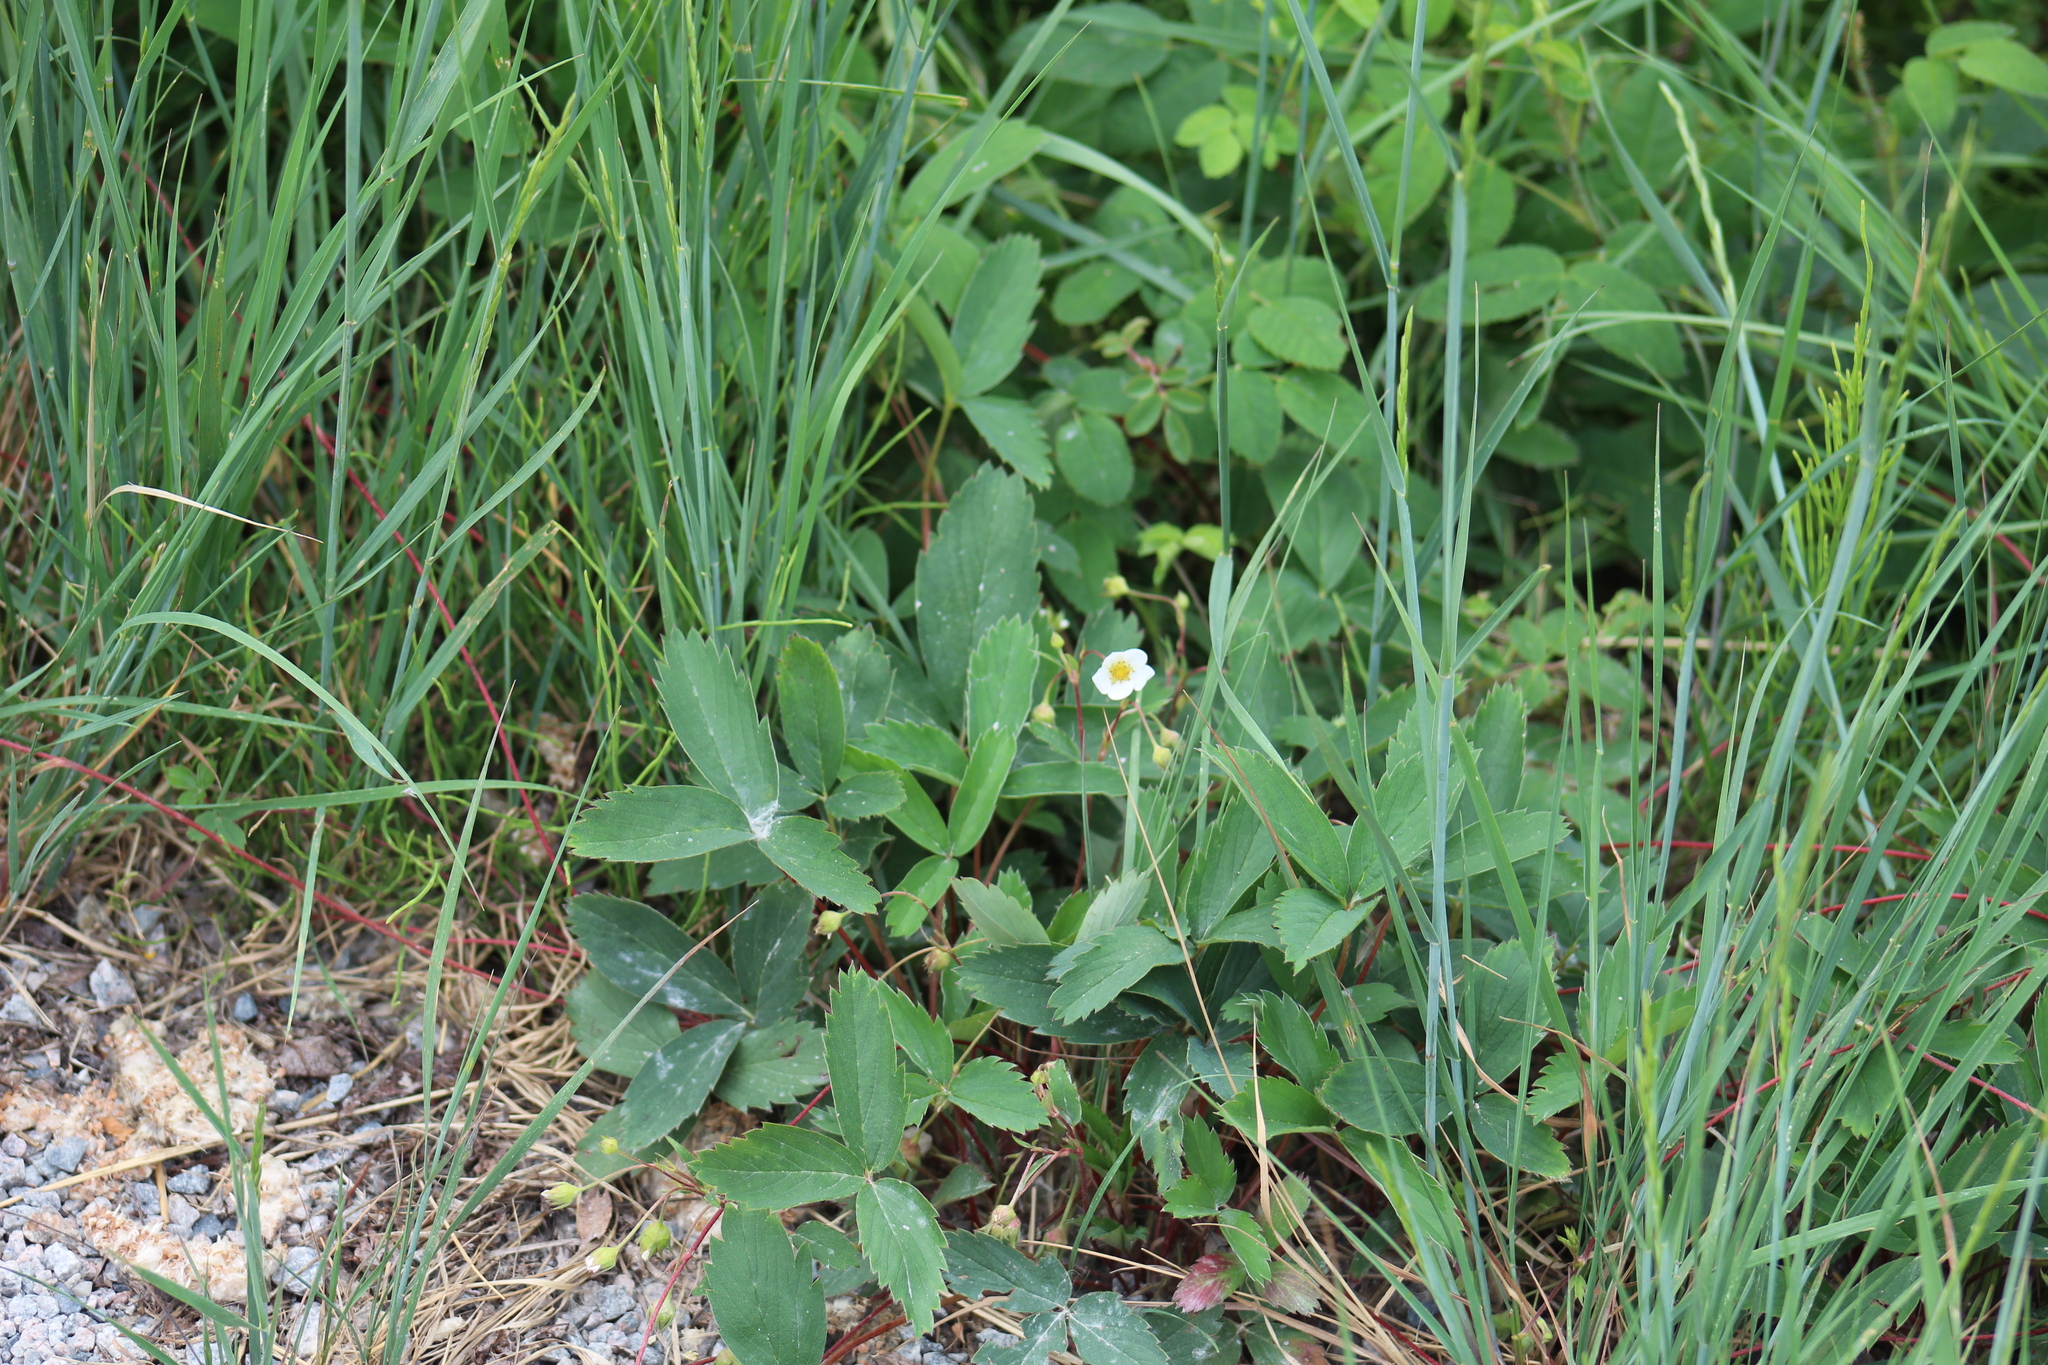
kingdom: Plantae
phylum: Tracheophyta
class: Magnoliopsida
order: Rosales
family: Rosaceae
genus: Fragaria
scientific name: Fragaria virginiana
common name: Thickleaved wild strawberry
